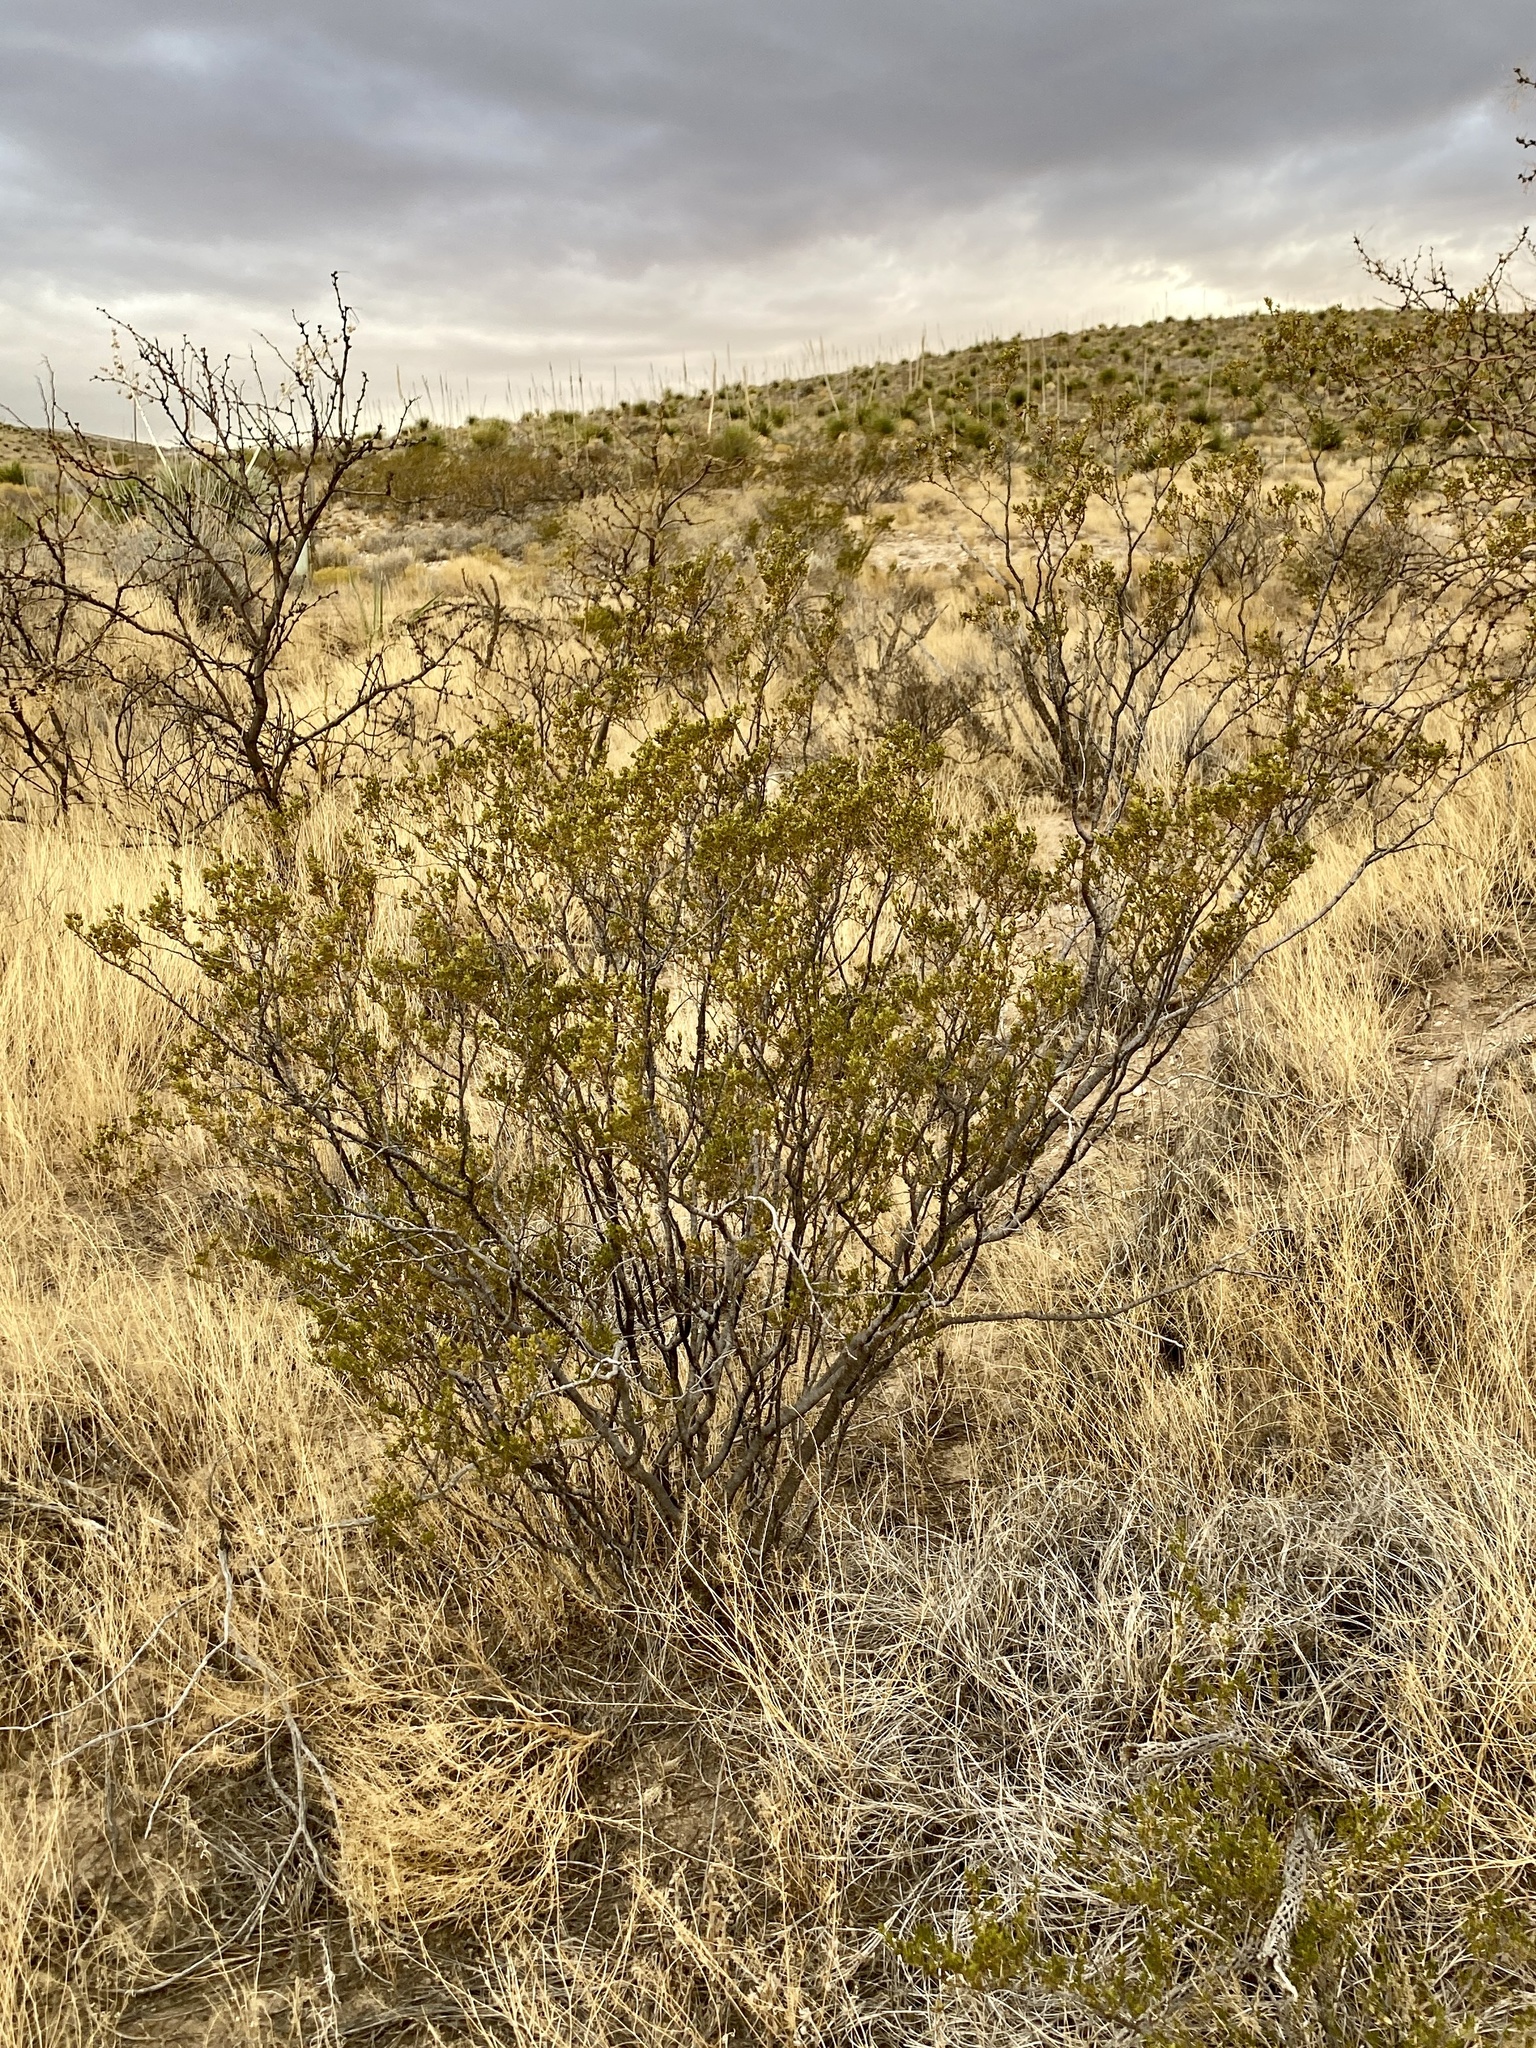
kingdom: Plantae
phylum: Tracheophyta
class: Magnoliopsida
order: Zygophyllales
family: Zygophyllaceae
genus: Larrea
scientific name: Larrea tridentata
